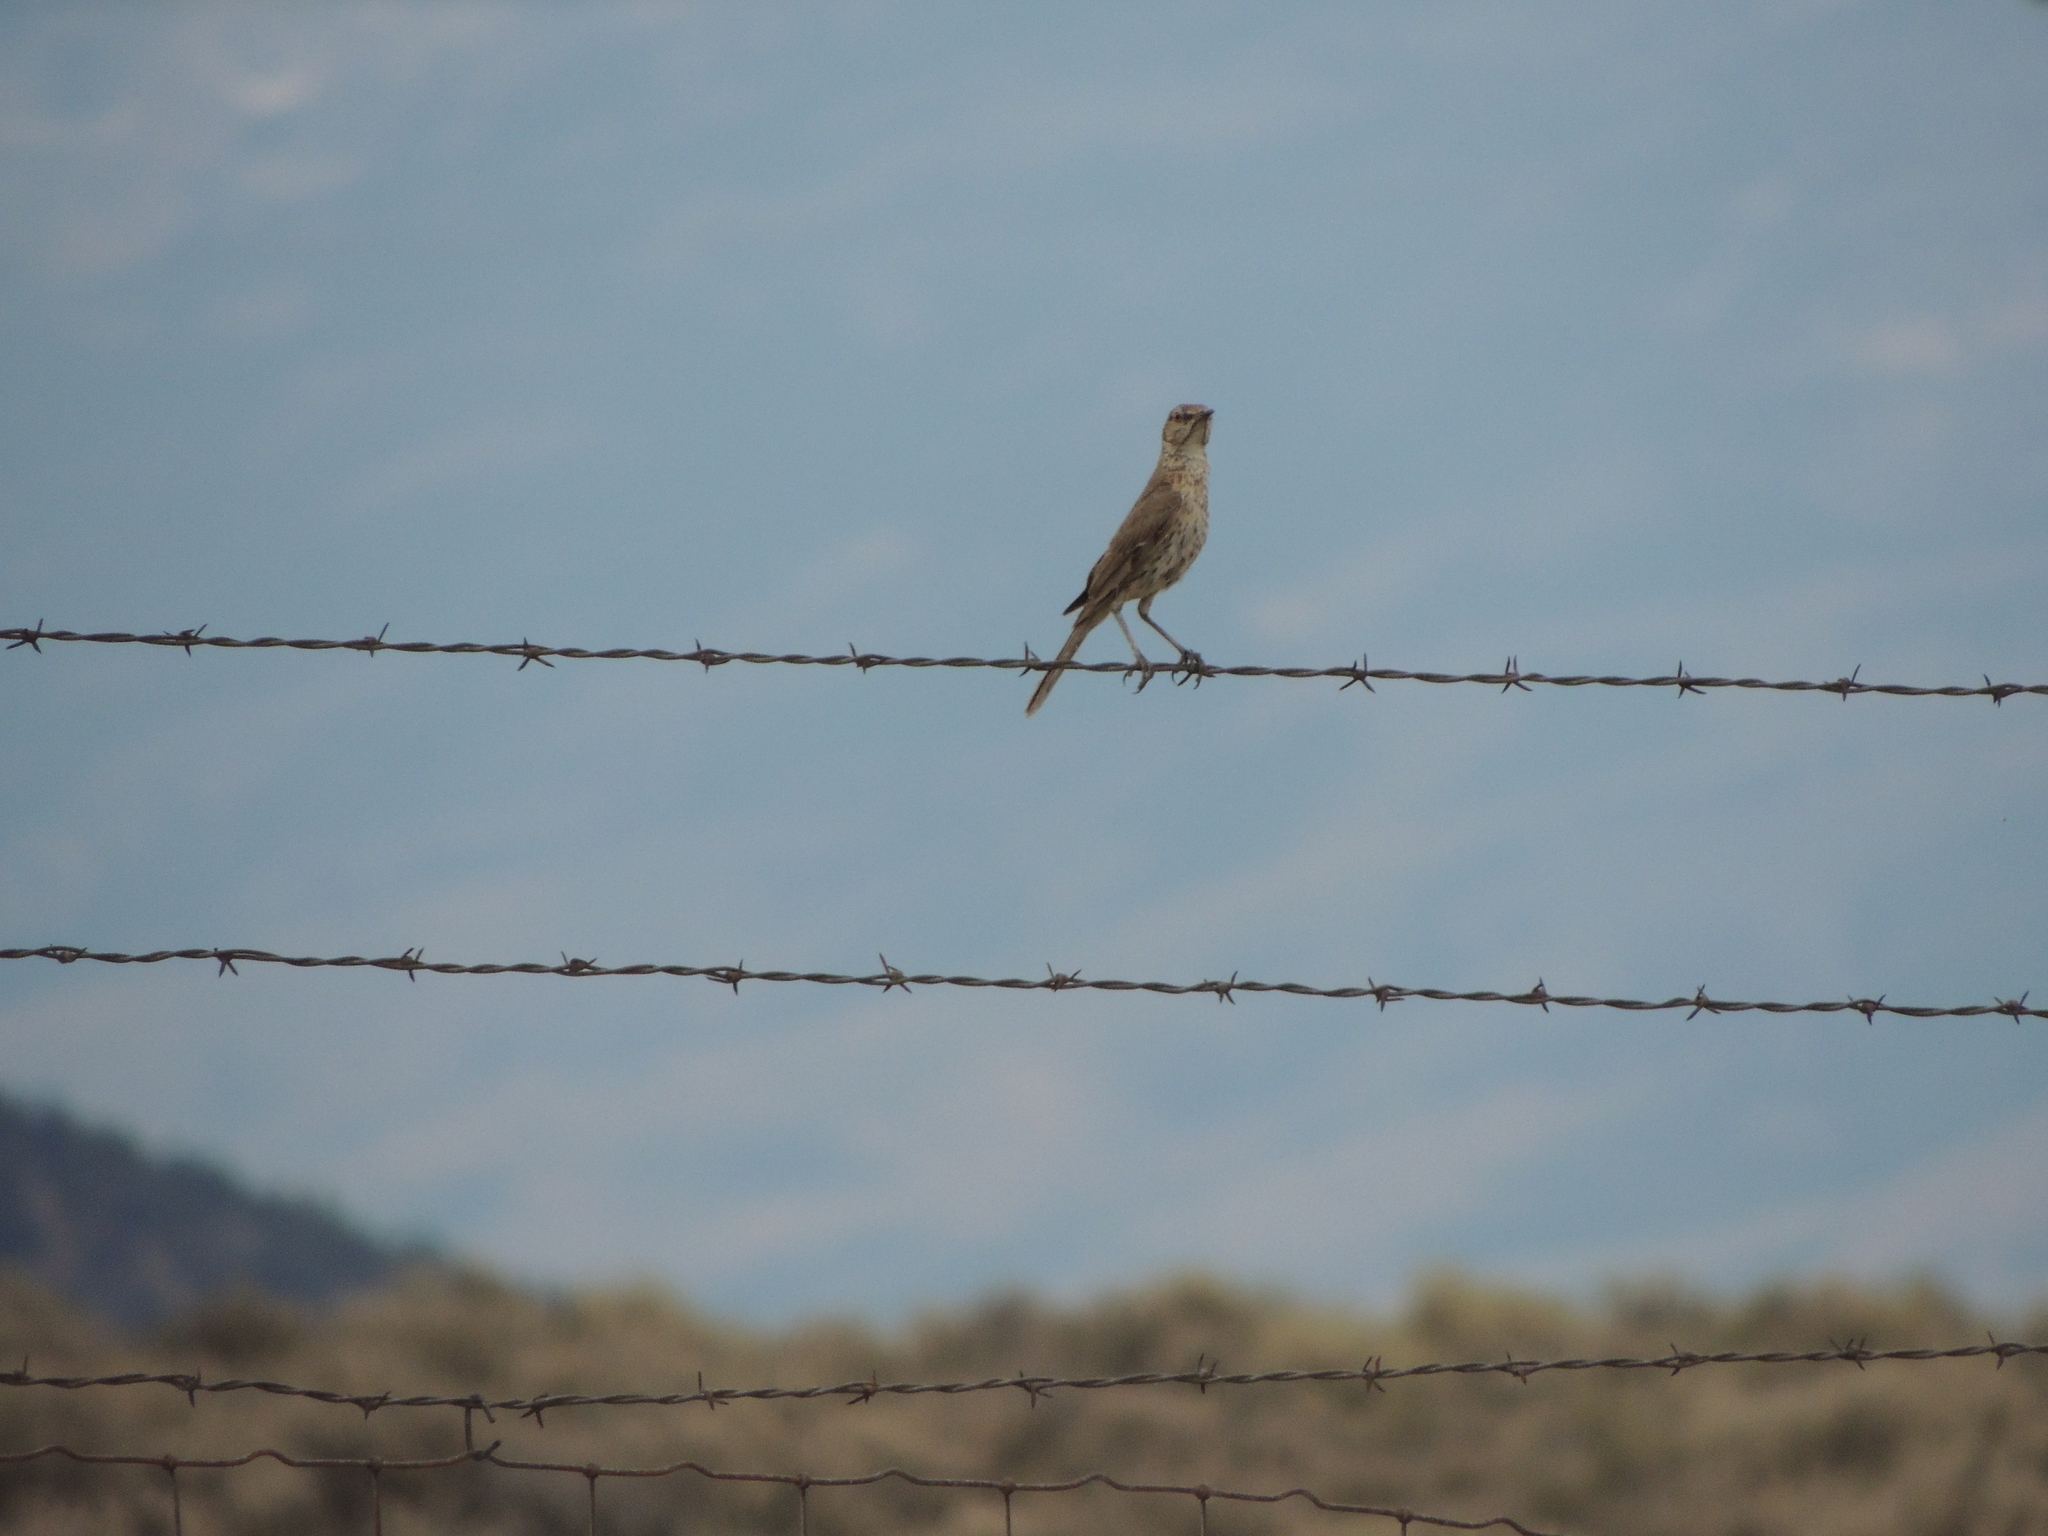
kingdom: Animalia
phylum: Chordata
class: Aves
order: Passeriformes
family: Mimidae
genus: Oreoscoptes
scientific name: Oreoscoptes montanus
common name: Sage thrasher
